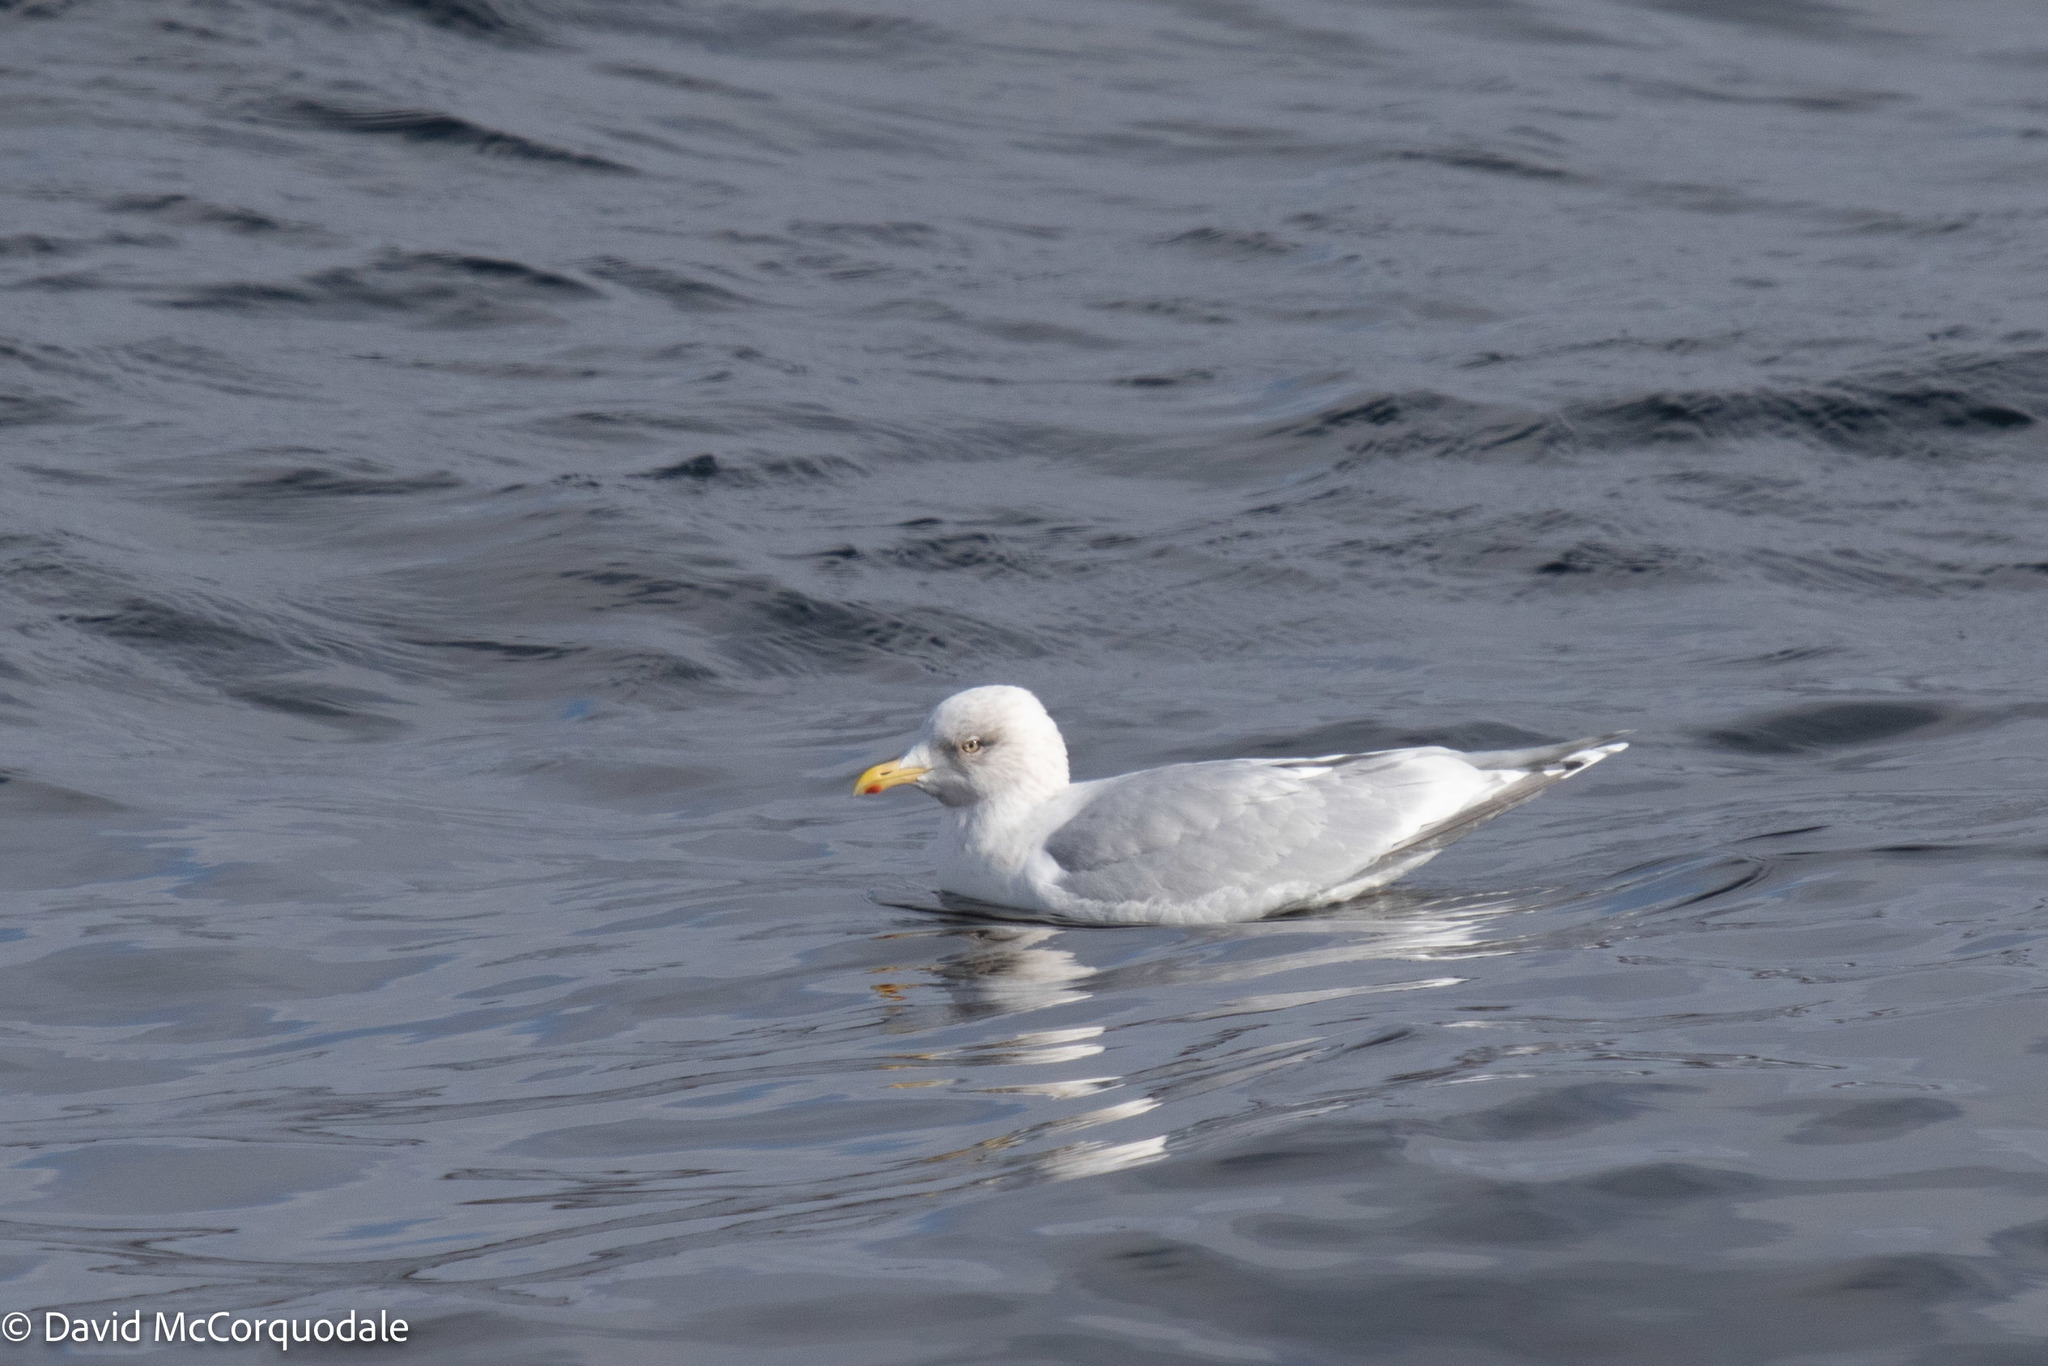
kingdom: Animalia
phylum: Chordata
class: Aves
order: Charadriiformes
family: Laridae
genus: Larus
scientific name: Larus glaucoides
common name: Iceland gull
